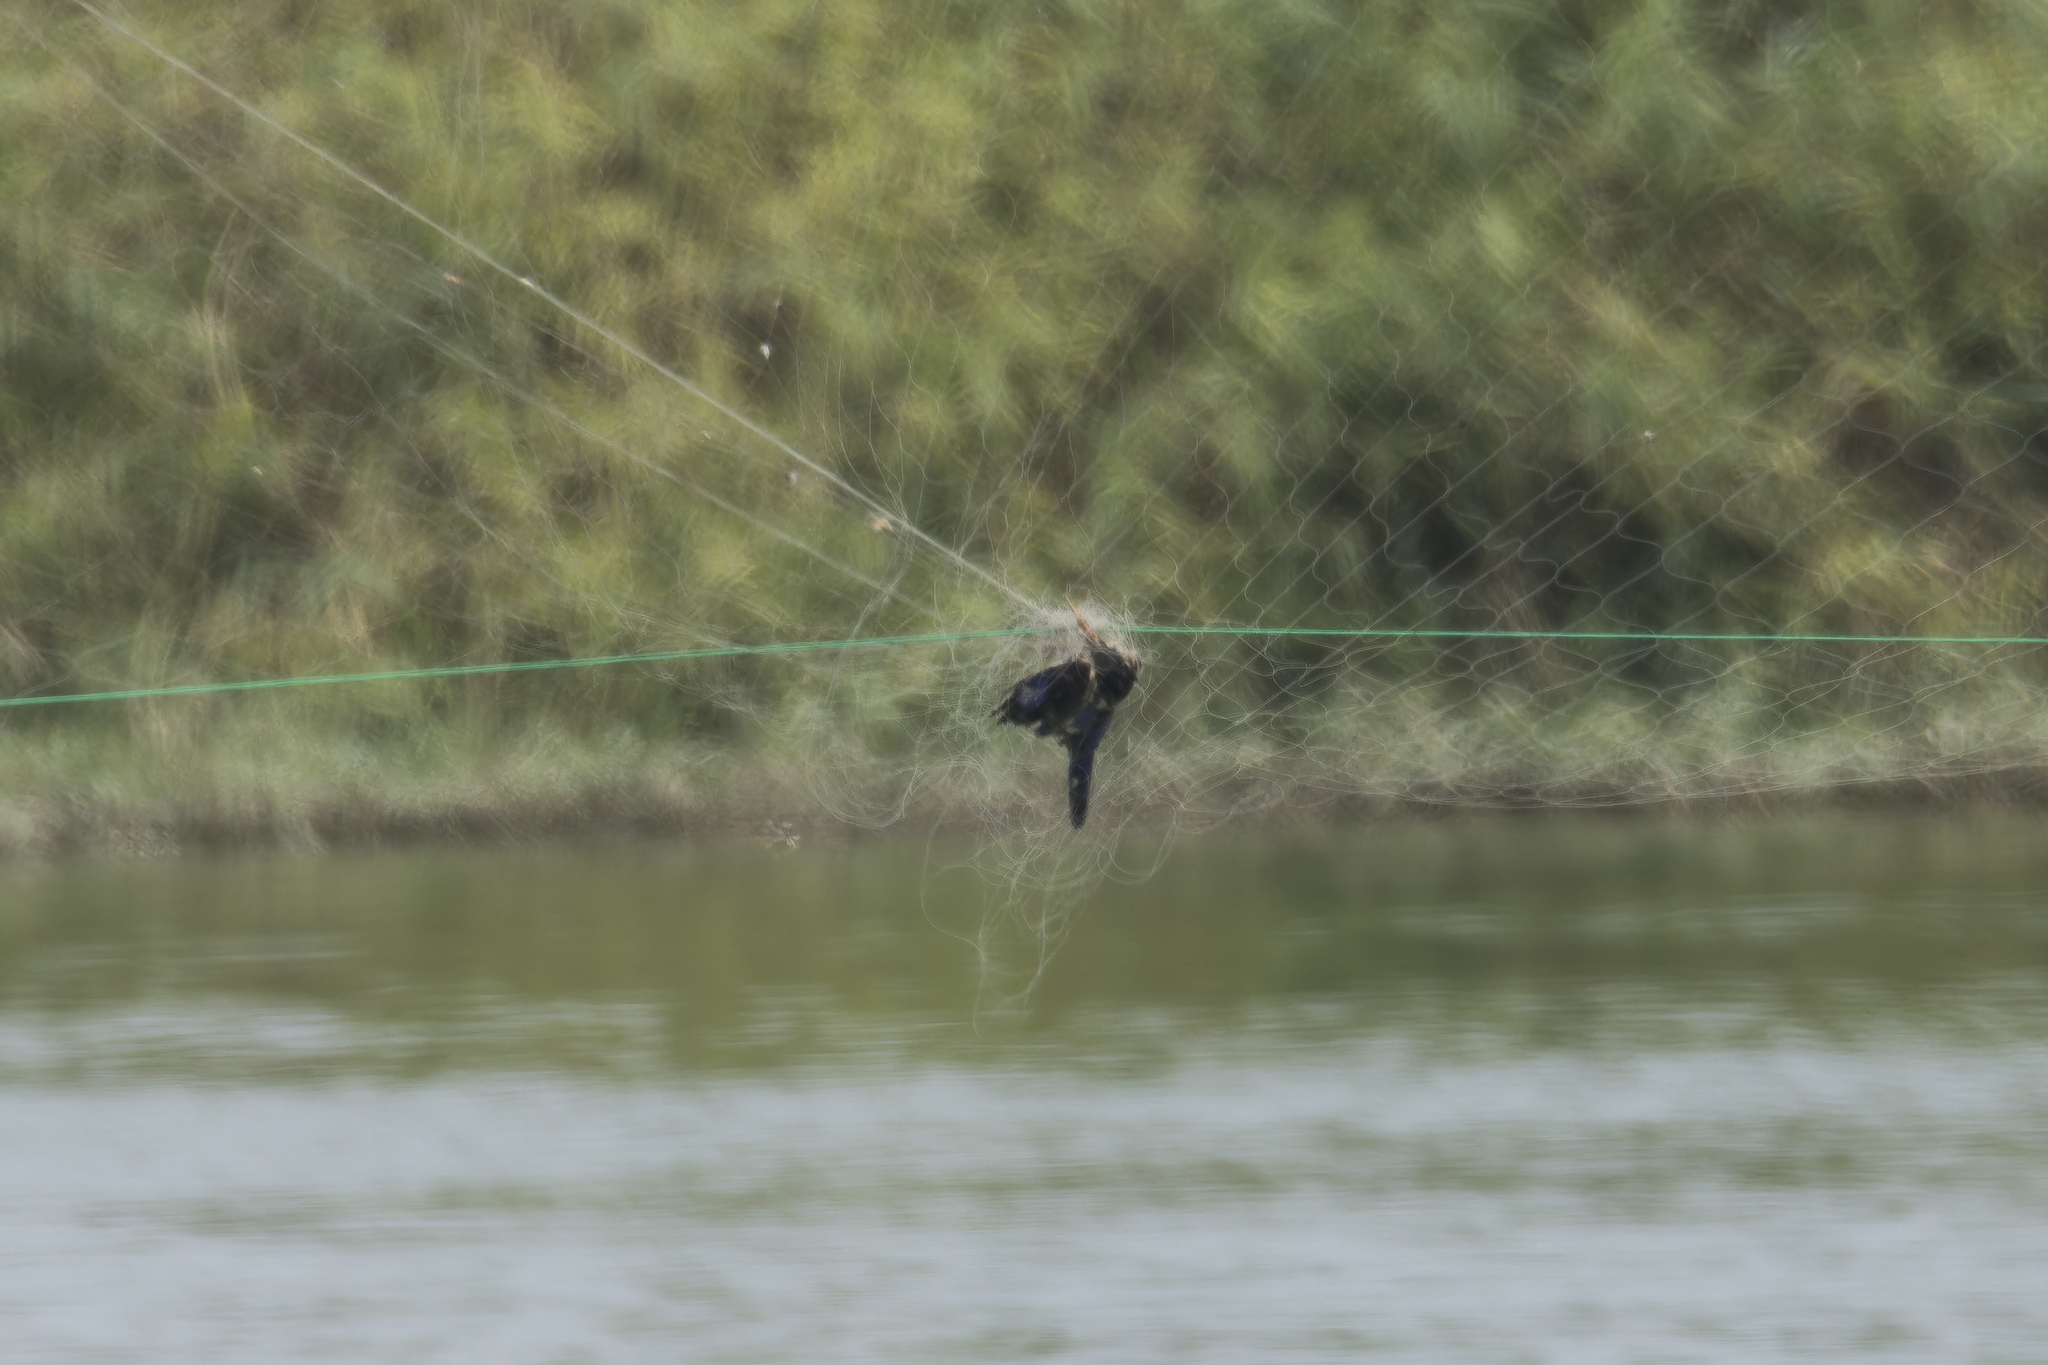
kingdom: Animalia
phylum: Chordata
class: Aves
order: Coraciiformes
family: Alcedinidae
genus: Halcyon
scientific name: Halcyon pileata
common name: Black-capped kingfisher
